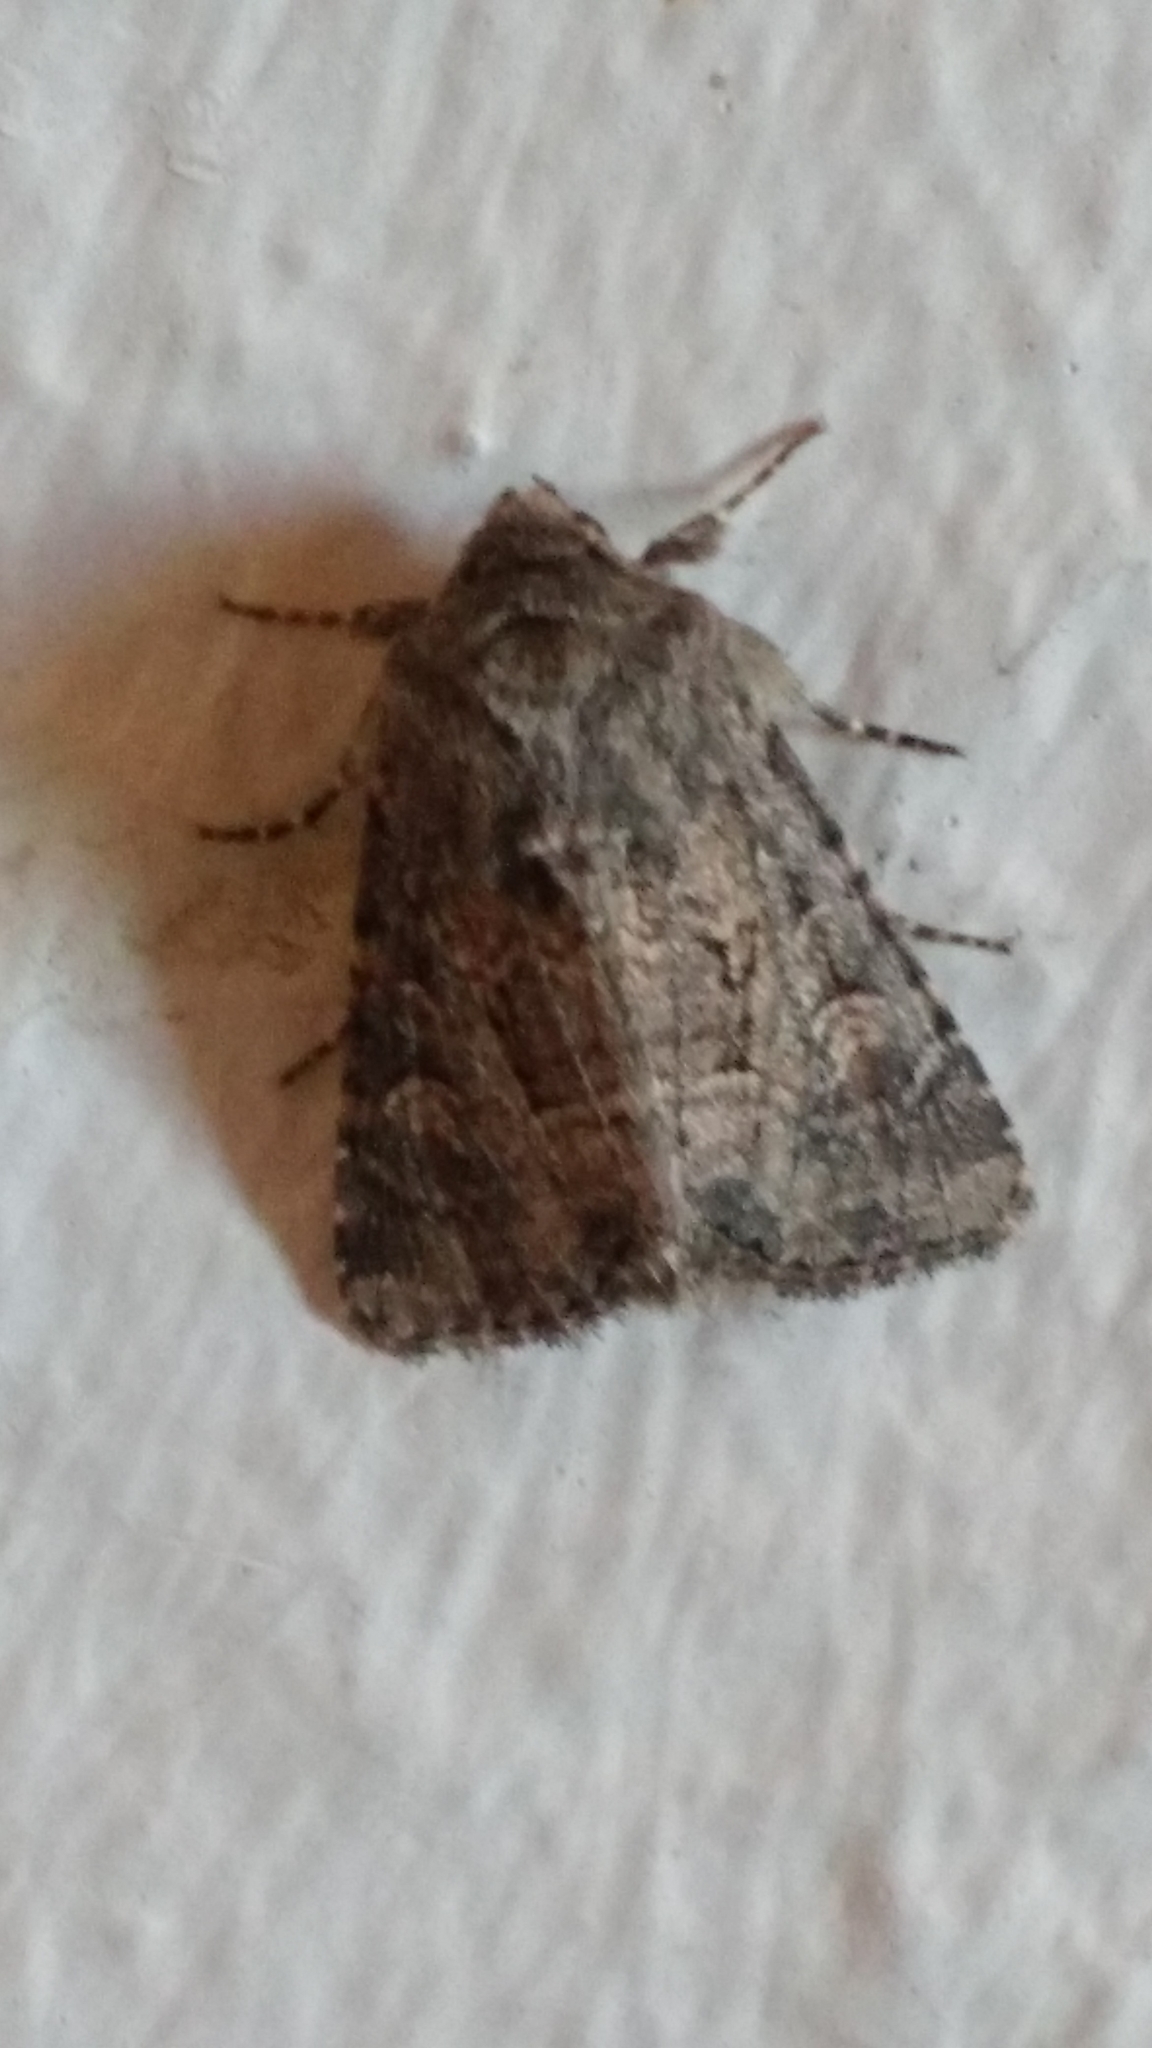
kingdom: Animalia
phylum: Arthropoda
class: Insecta
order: Lepidoptera
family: Noctuidae
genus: Luperina
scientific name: Luperina testacea
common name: Flounced rustic
